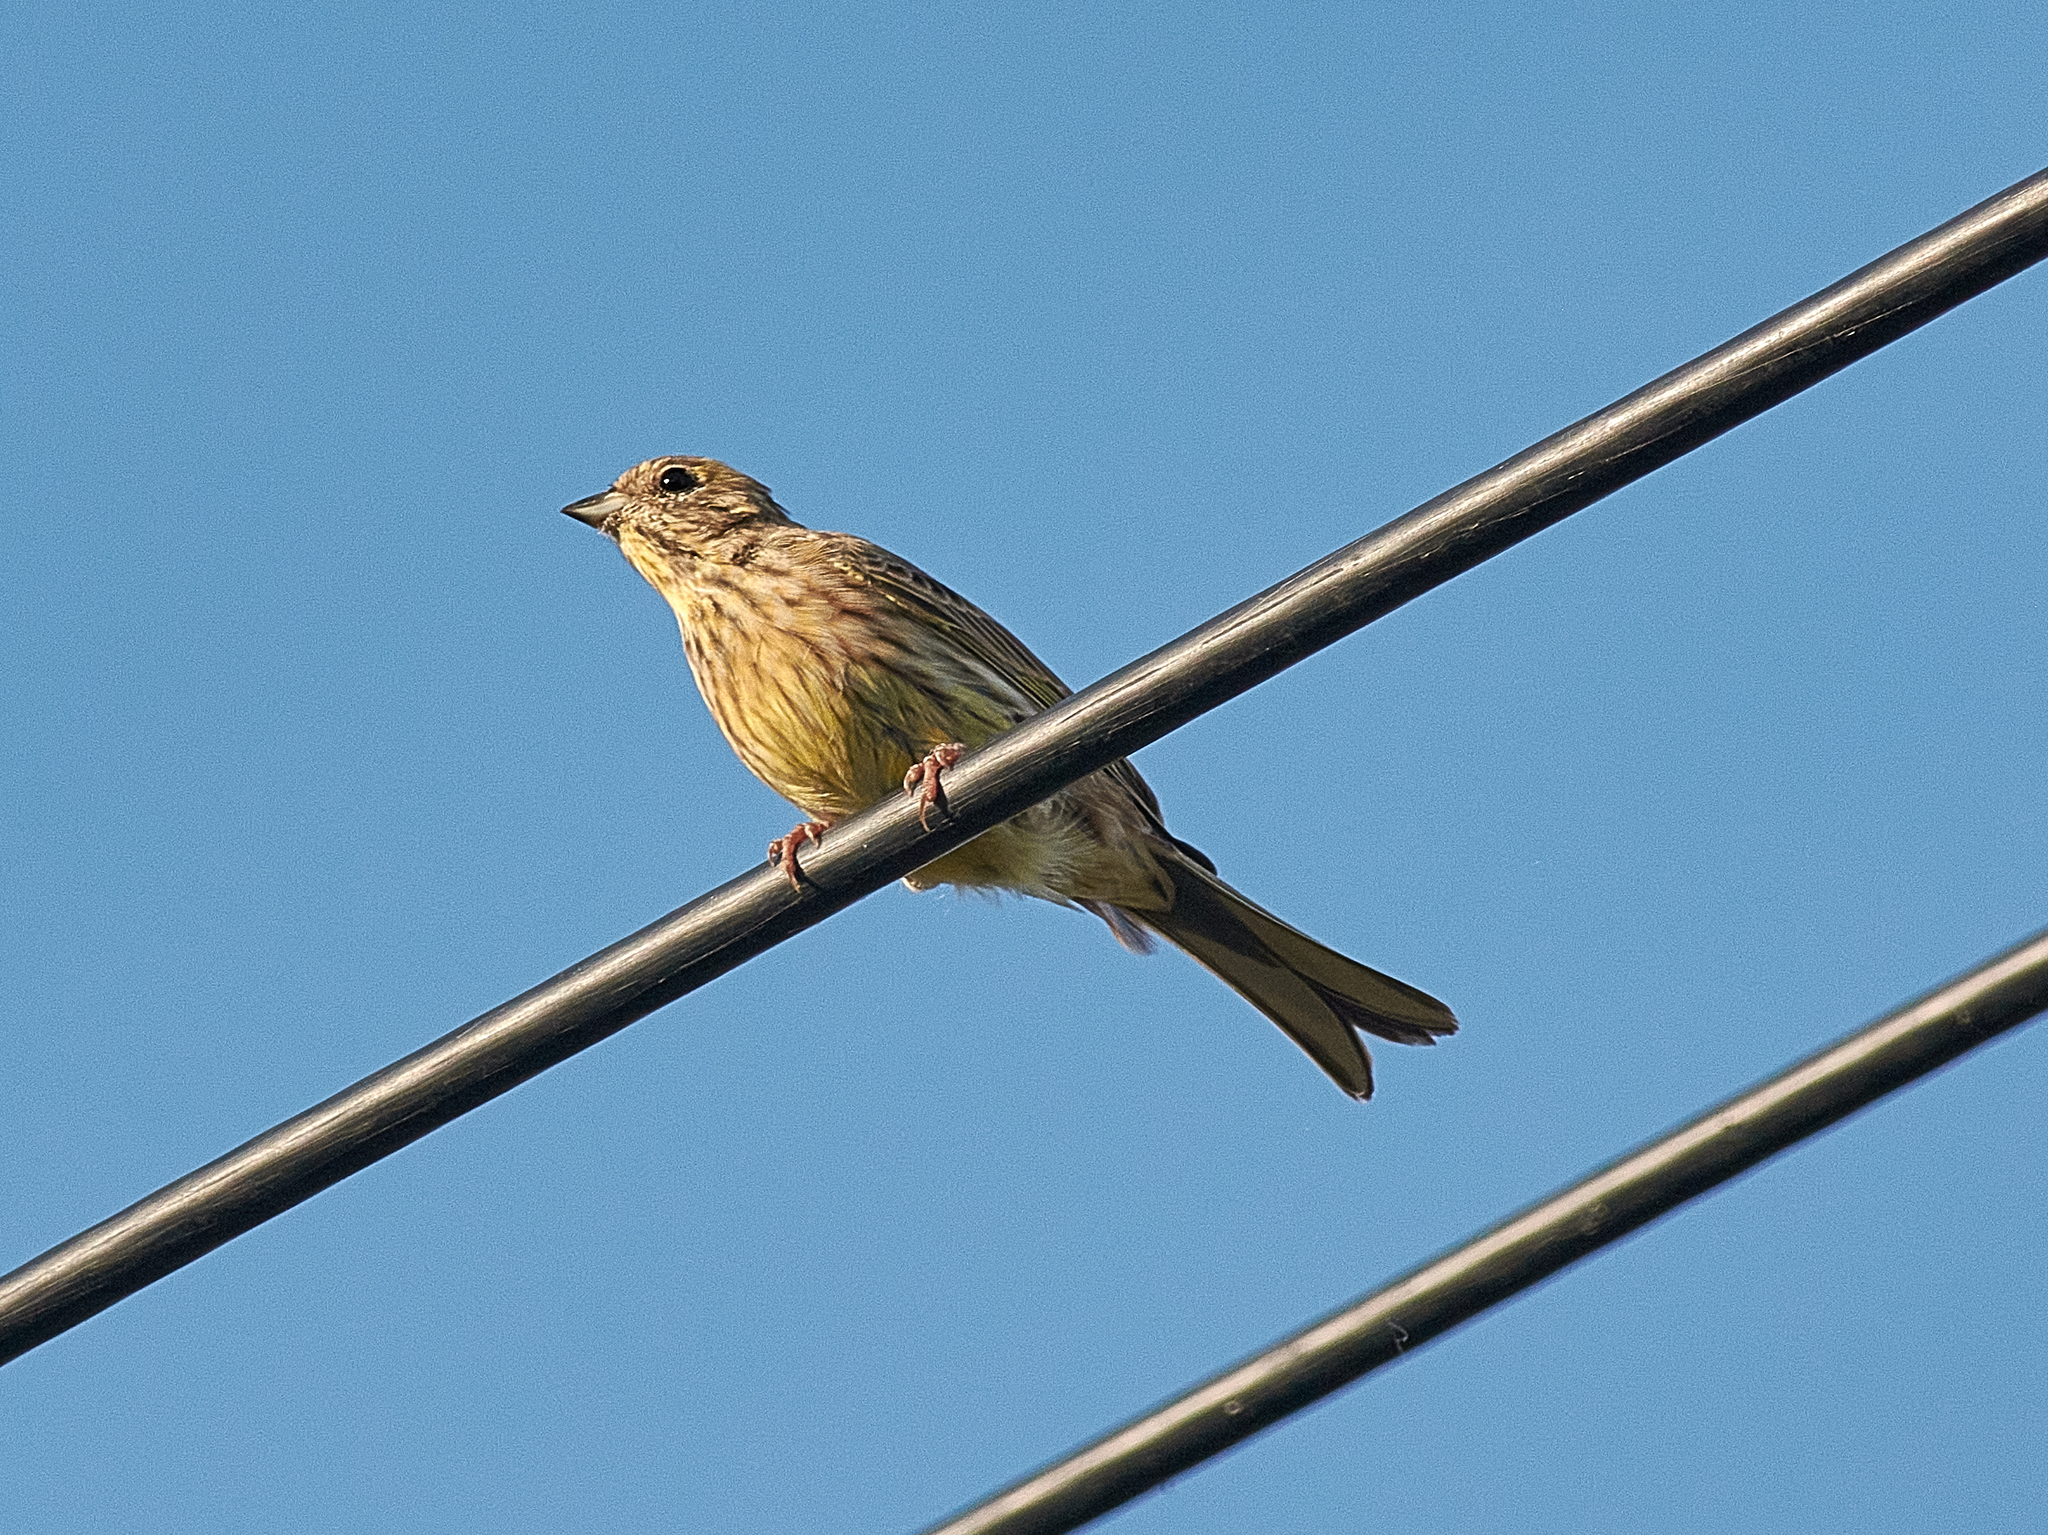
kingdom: Animalia
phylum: Chordata
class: Aves
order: Passeriformes
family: Emberizidae
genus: Emberiza
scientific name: Emberiza citrinella
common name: Yellowhammer
